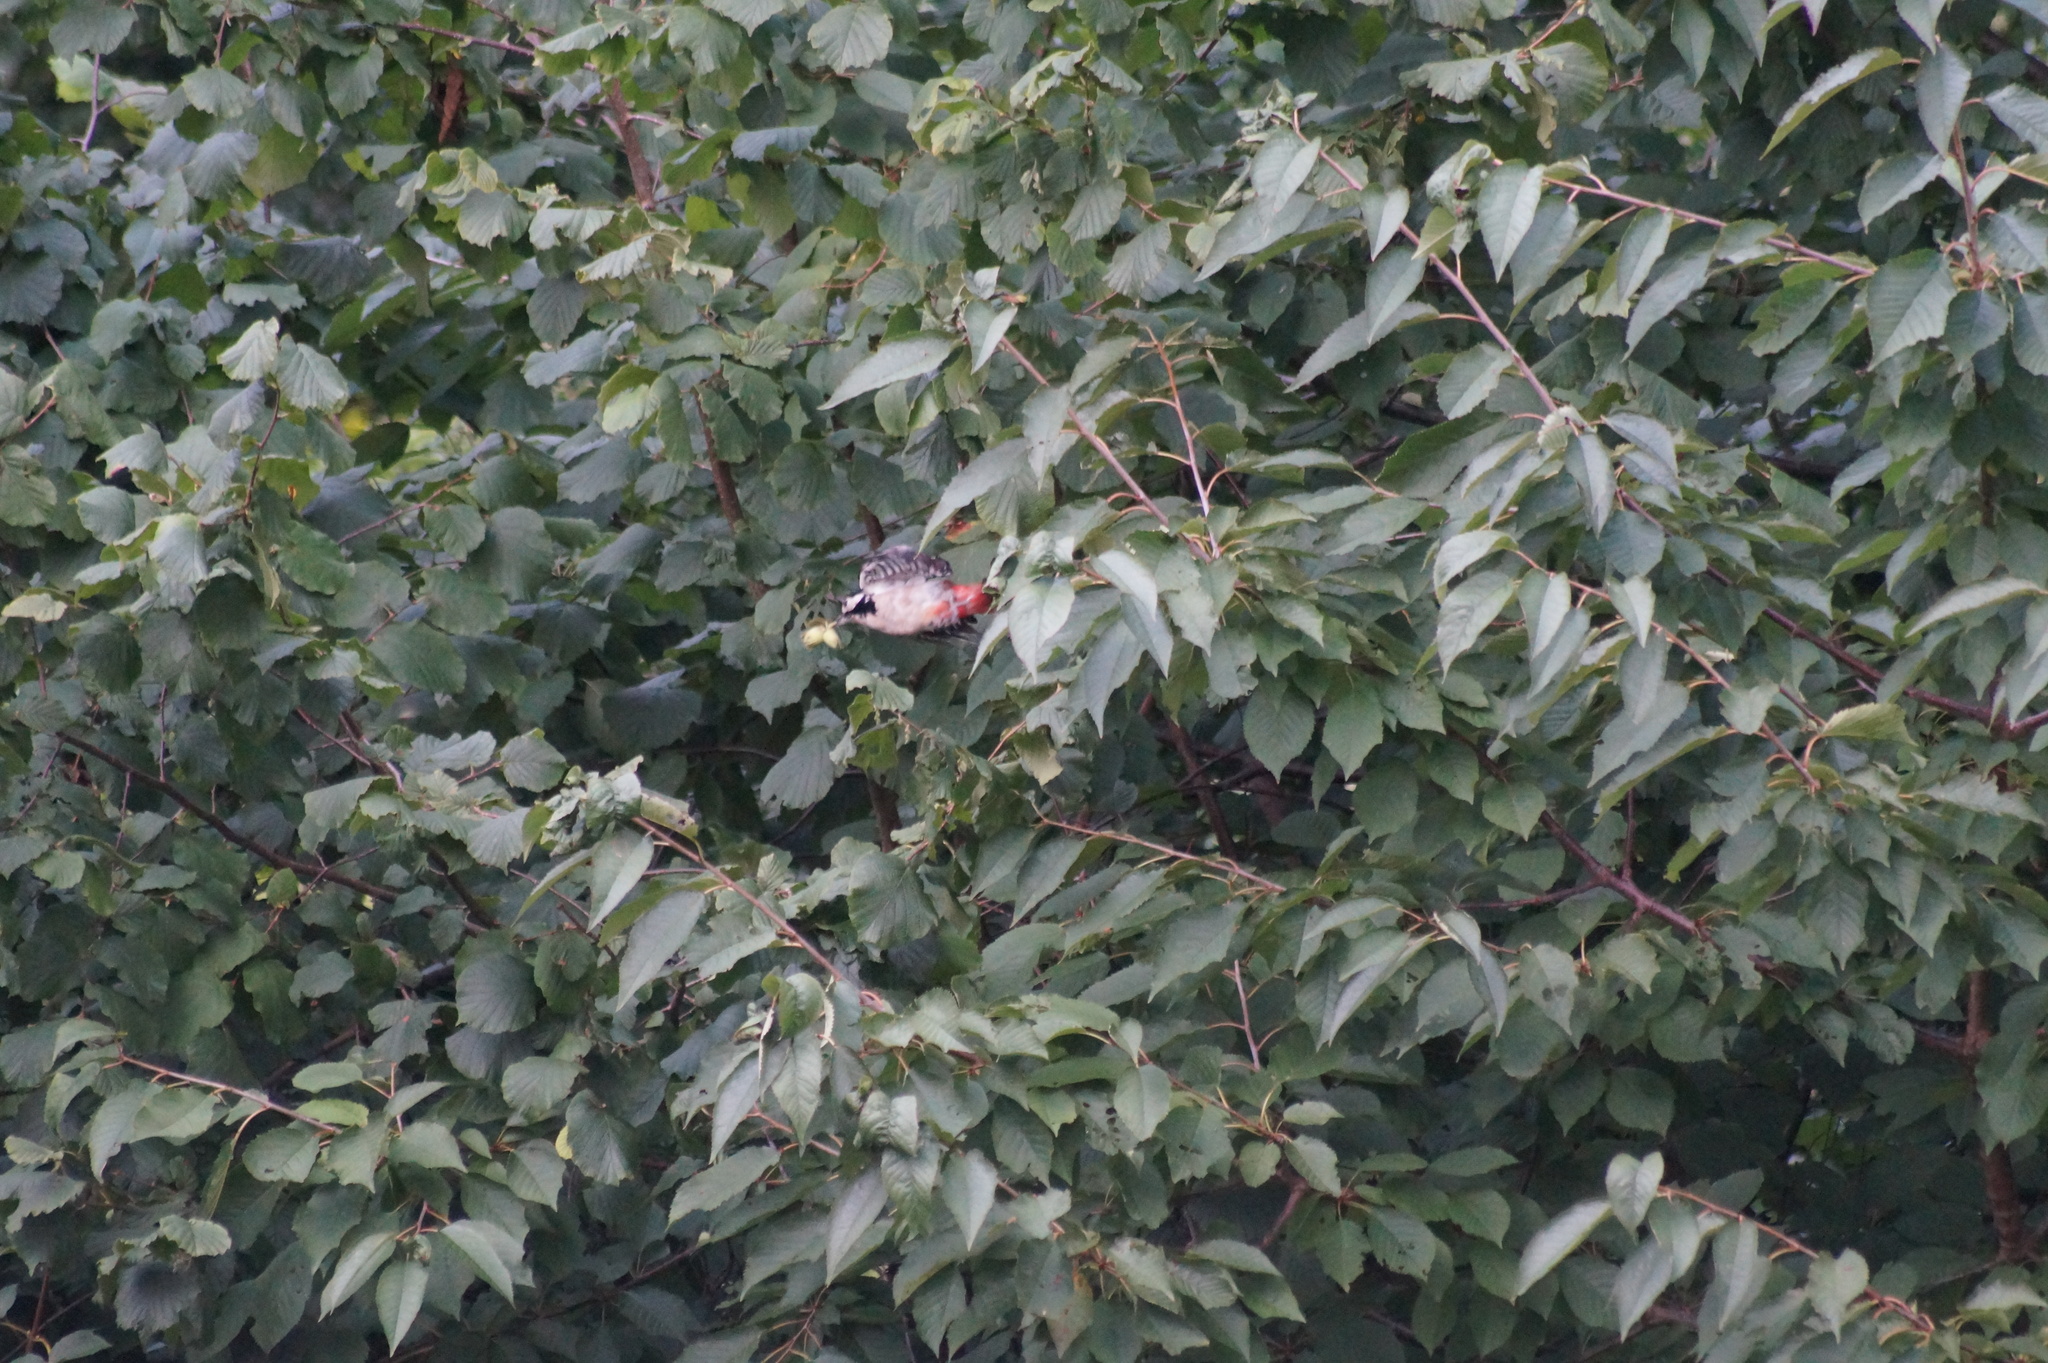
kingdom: Animalia
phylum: Chordata
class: Aves
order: Piciformes
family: Picidae
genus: Dendrocopos
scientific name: Dendrocopos major
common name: Great spotted woodpecker
